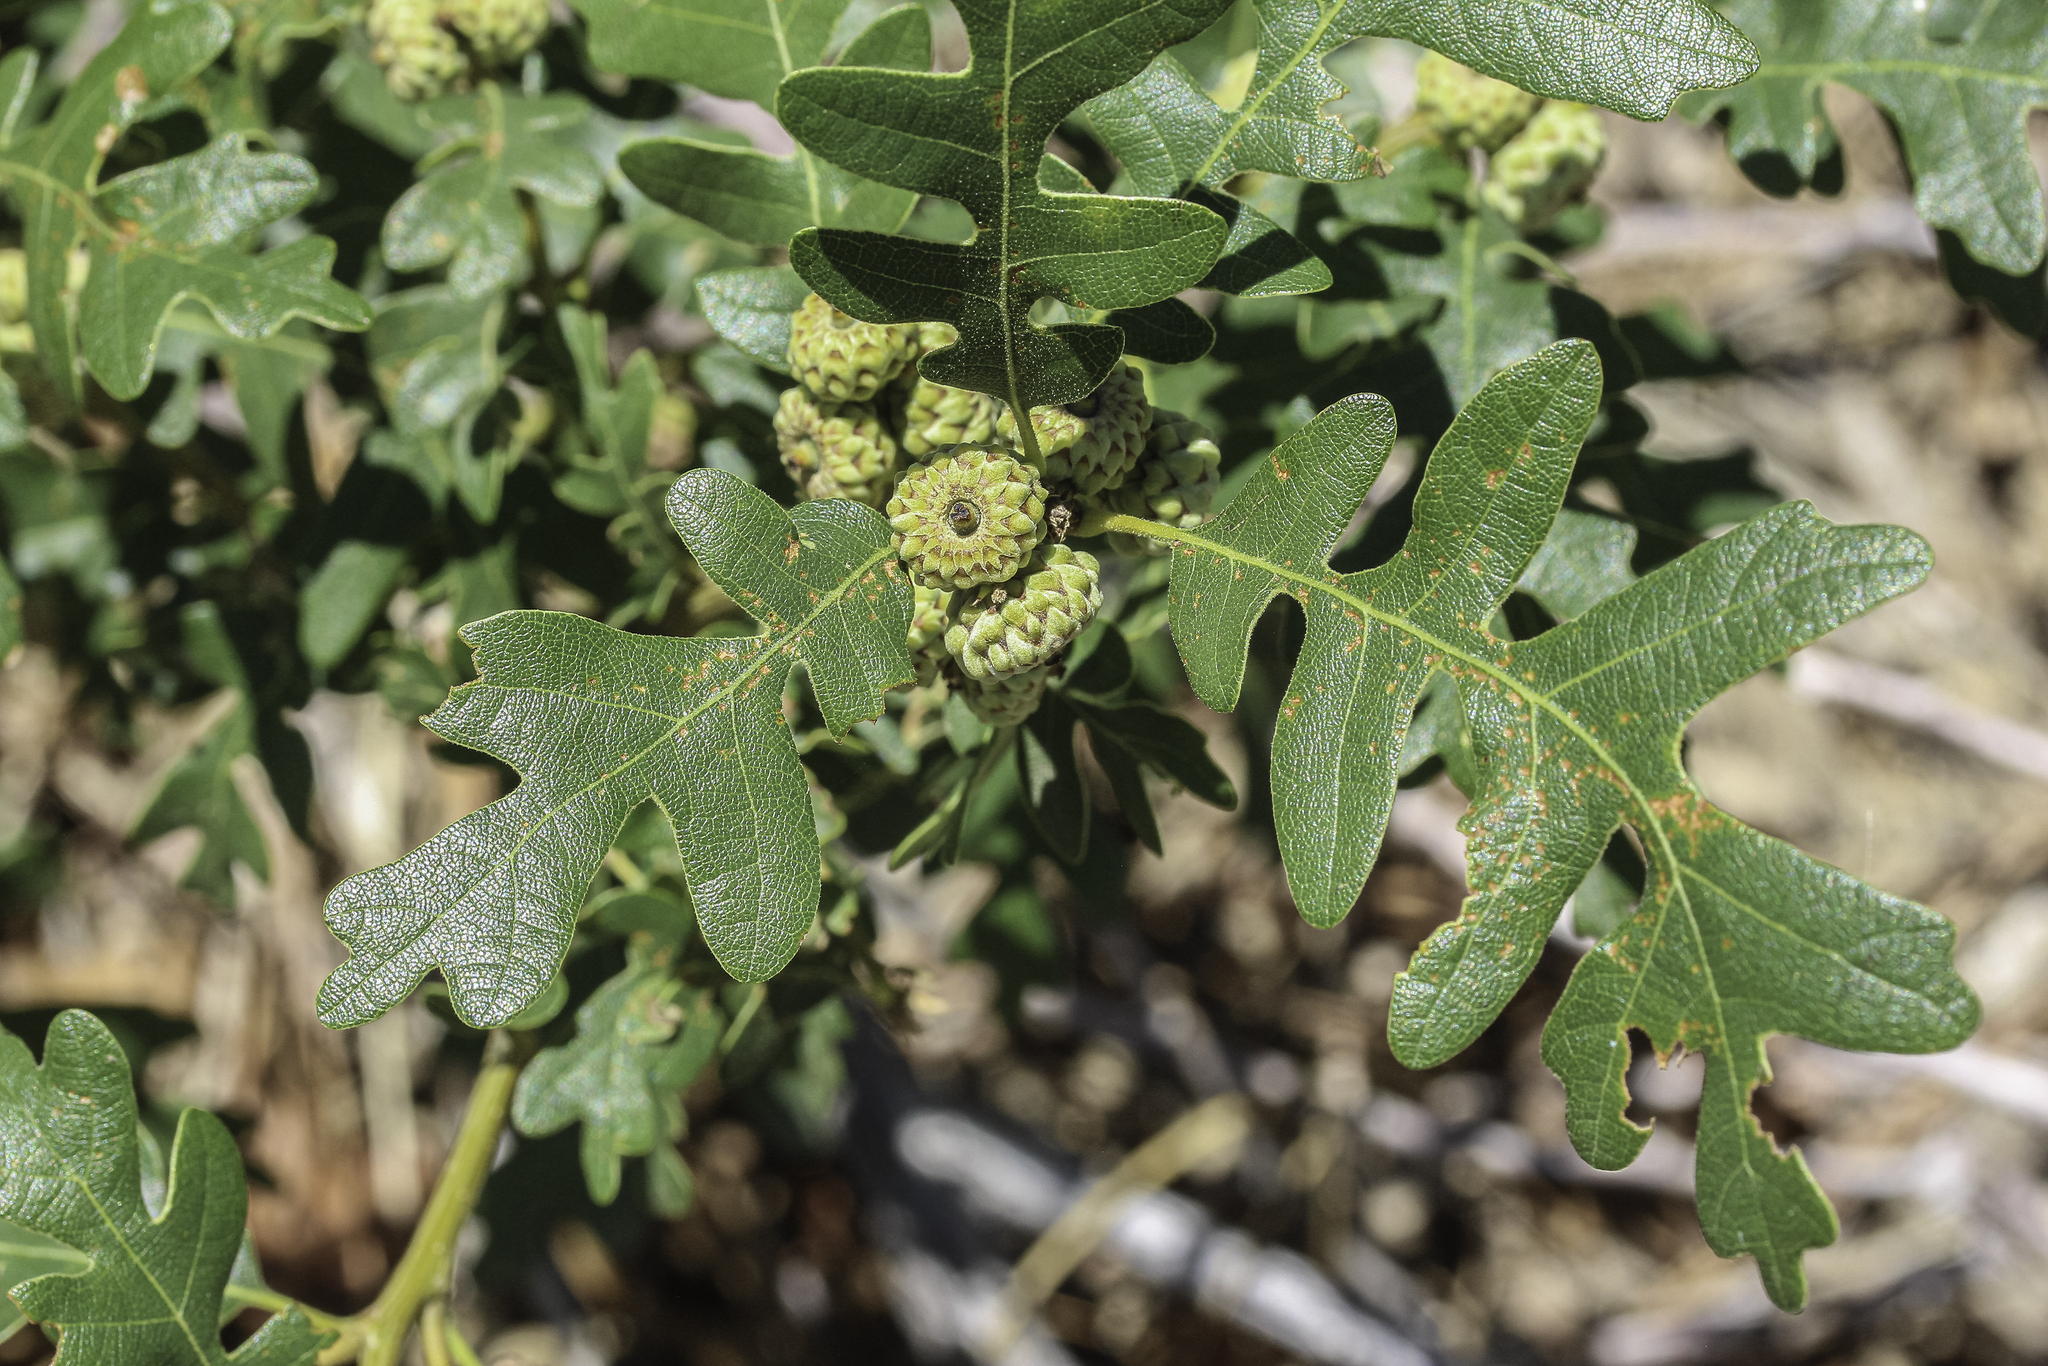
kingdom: Plantae
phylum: Tracheophyta
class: Magnoliopsida
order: Fagales
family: Fagaceae
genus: Quercus
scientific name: Quercus gambelii
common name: Gambel oak
